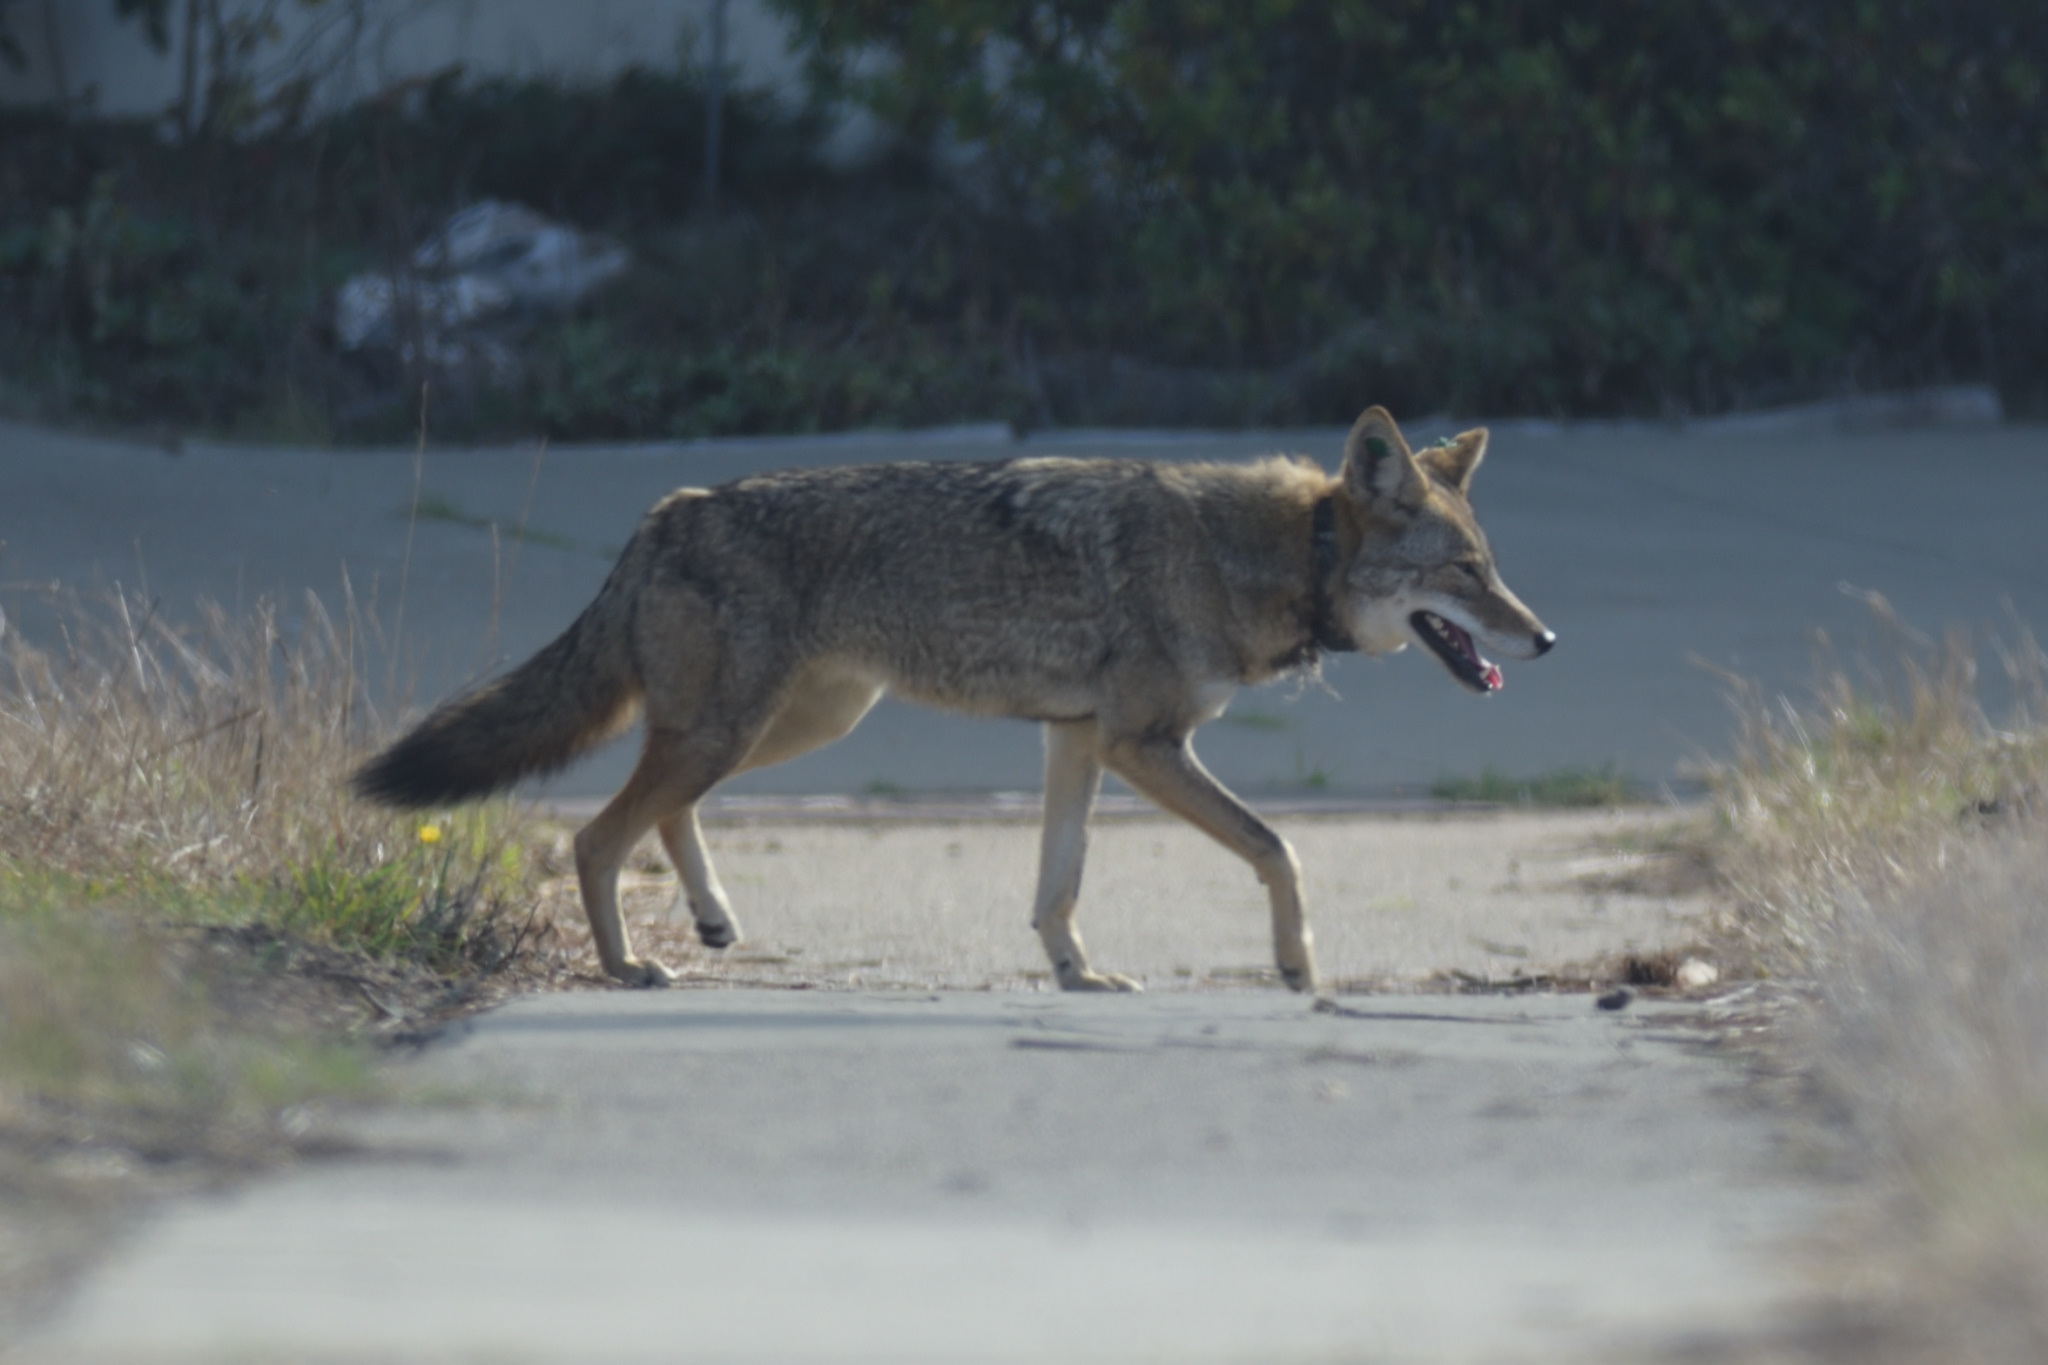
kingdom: Animalia
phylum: Chordata
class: Mammalia
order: Carnivora
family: Canidae
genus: Canis
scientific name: Canis latrans
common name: Coyote
